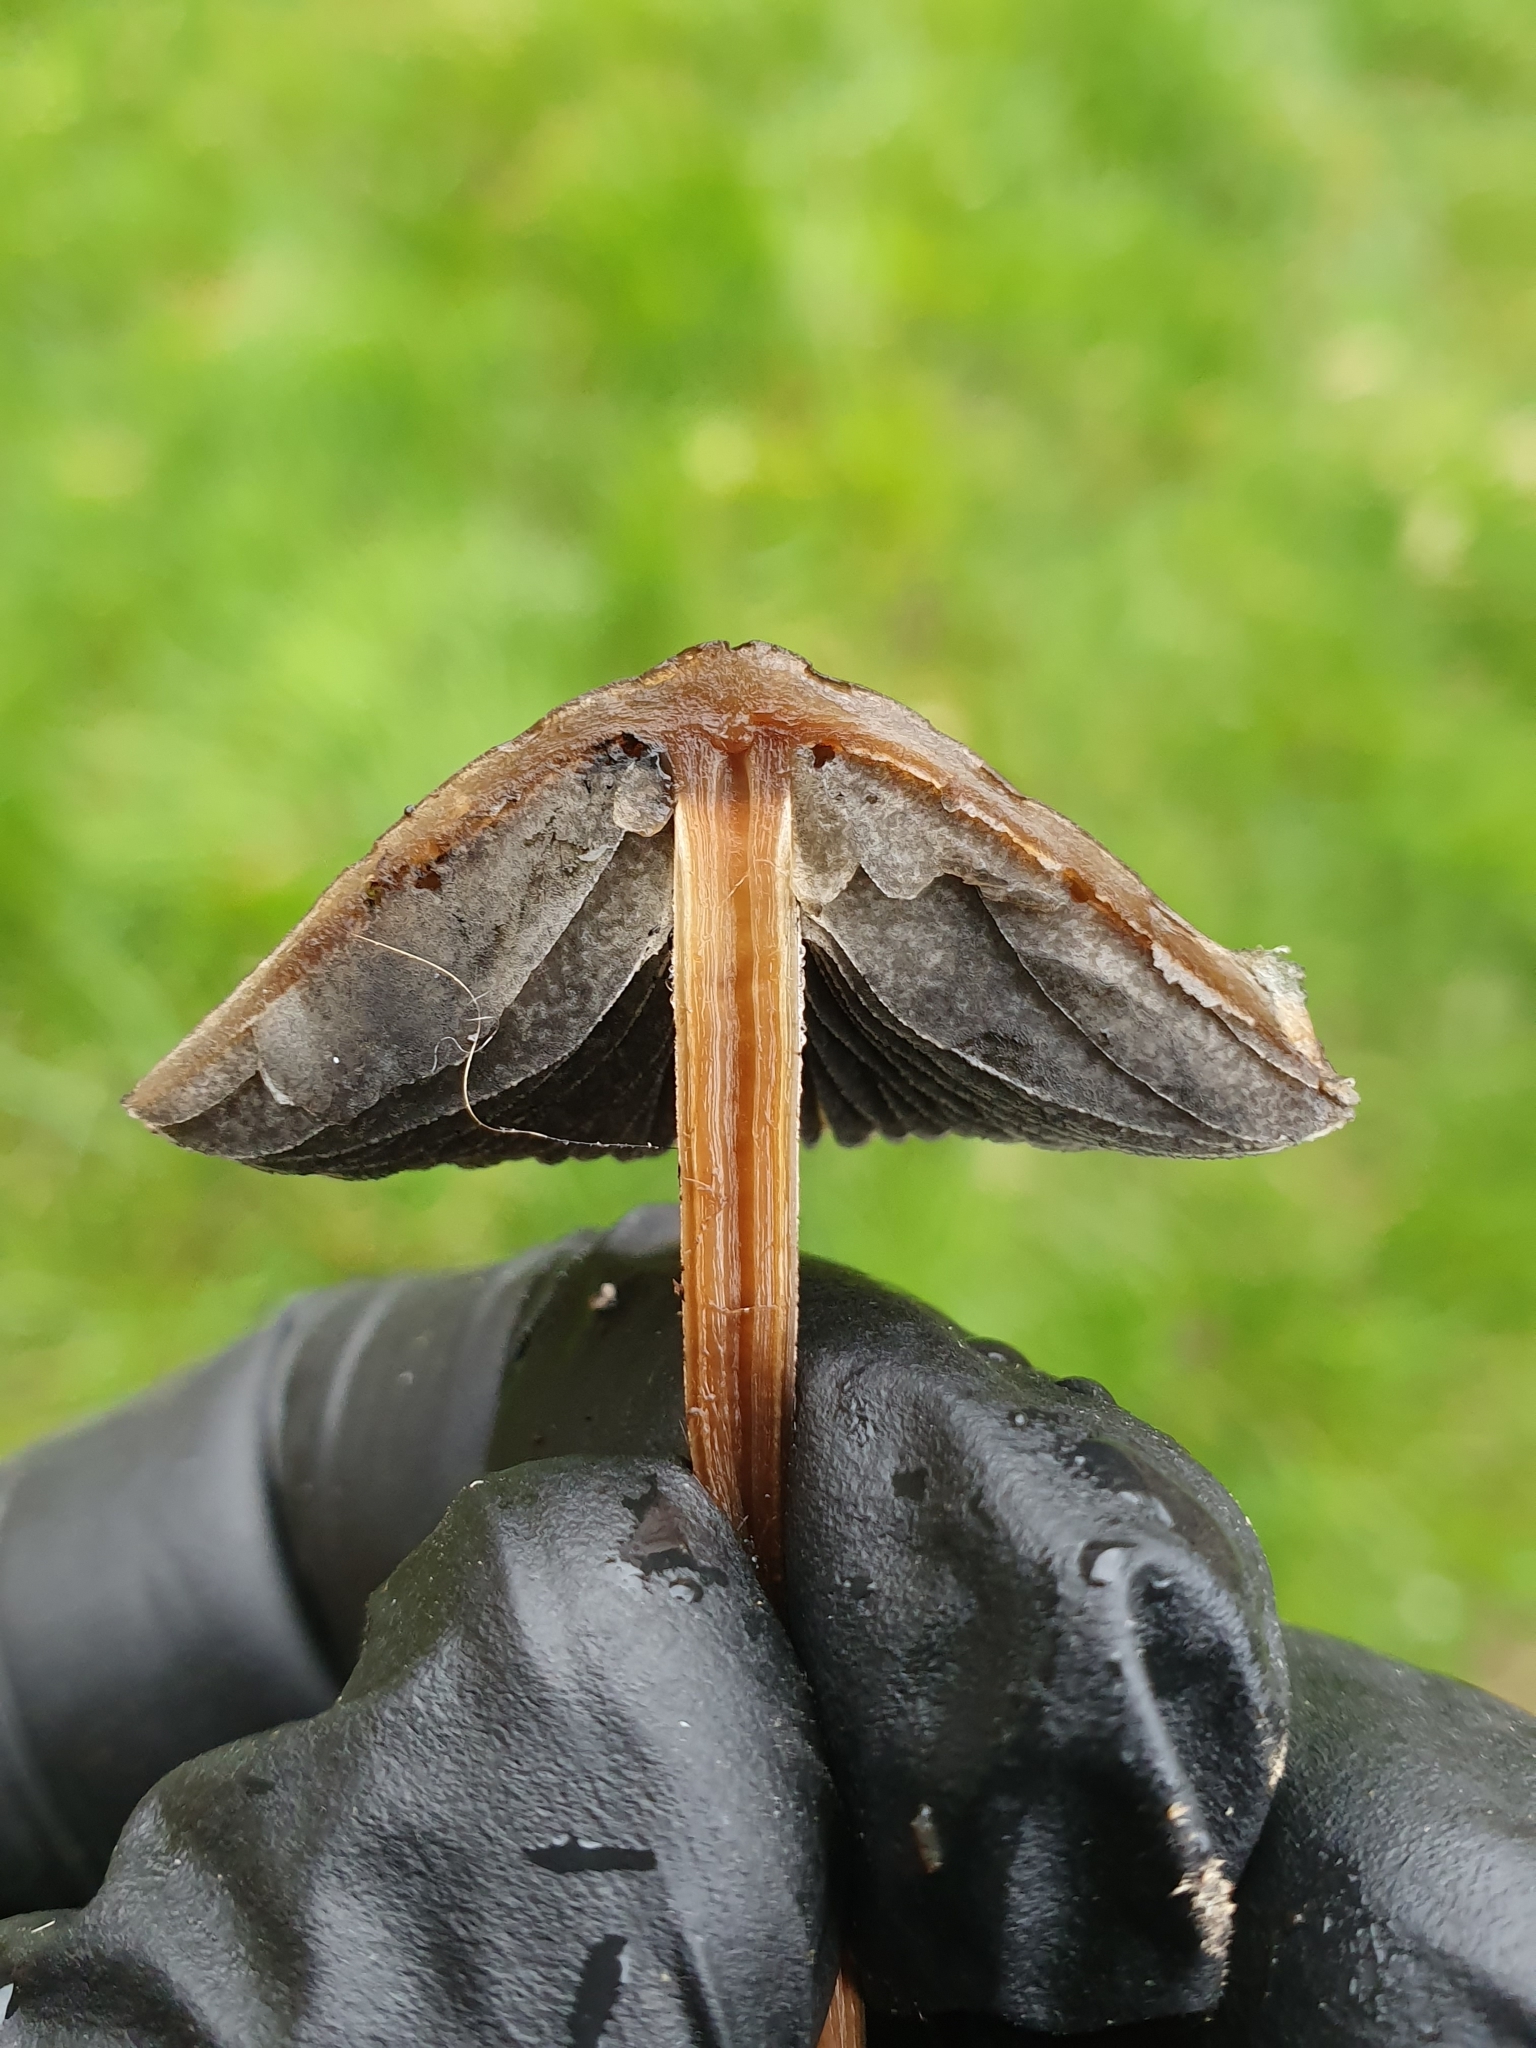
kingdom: Fungi
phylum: Basidiomycota
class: Agaricomycetes
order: Agaricales
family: Bolbitiaceae
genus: Panaeolus
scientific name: Panaeolus papilionaceus
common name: Petticoat mottlegill
